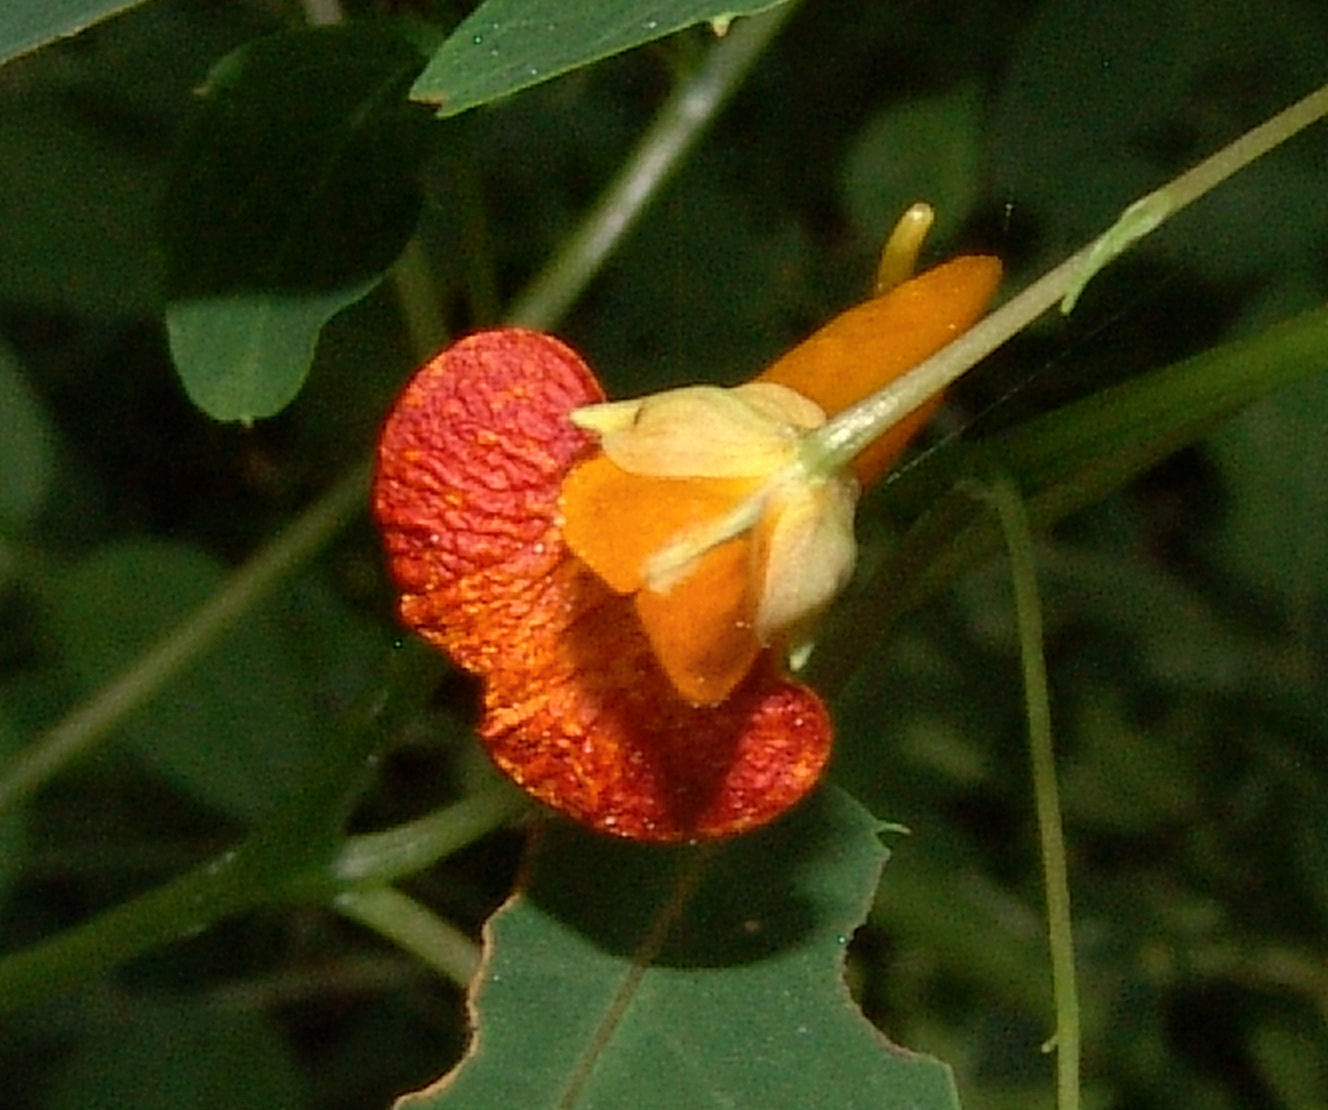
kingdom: Plantae
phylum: Tracheophyta
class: Magnoliopsida
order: Ericales
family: Balsaminaceae
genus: Impatiens
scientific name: Impatiens capensis
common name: Orange balsam
